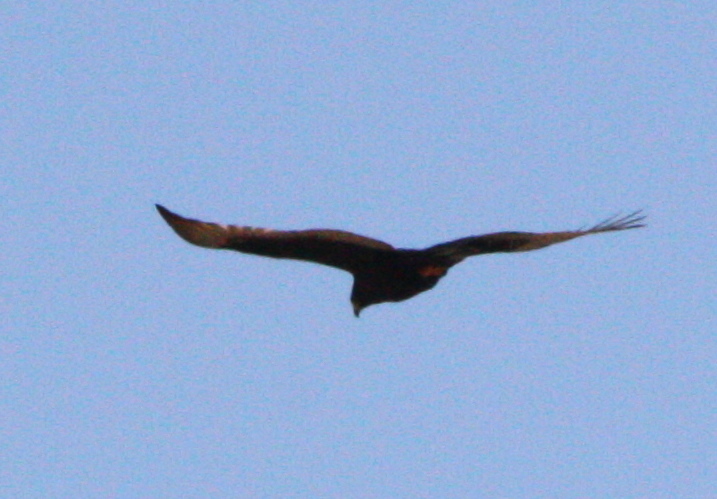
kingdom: Animalia
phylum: Chordata
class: Aves
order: Accipitriformes
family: Accipitridae
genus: Buteo
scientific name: Buteo albonotatus
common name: Zone-tailed hawk
